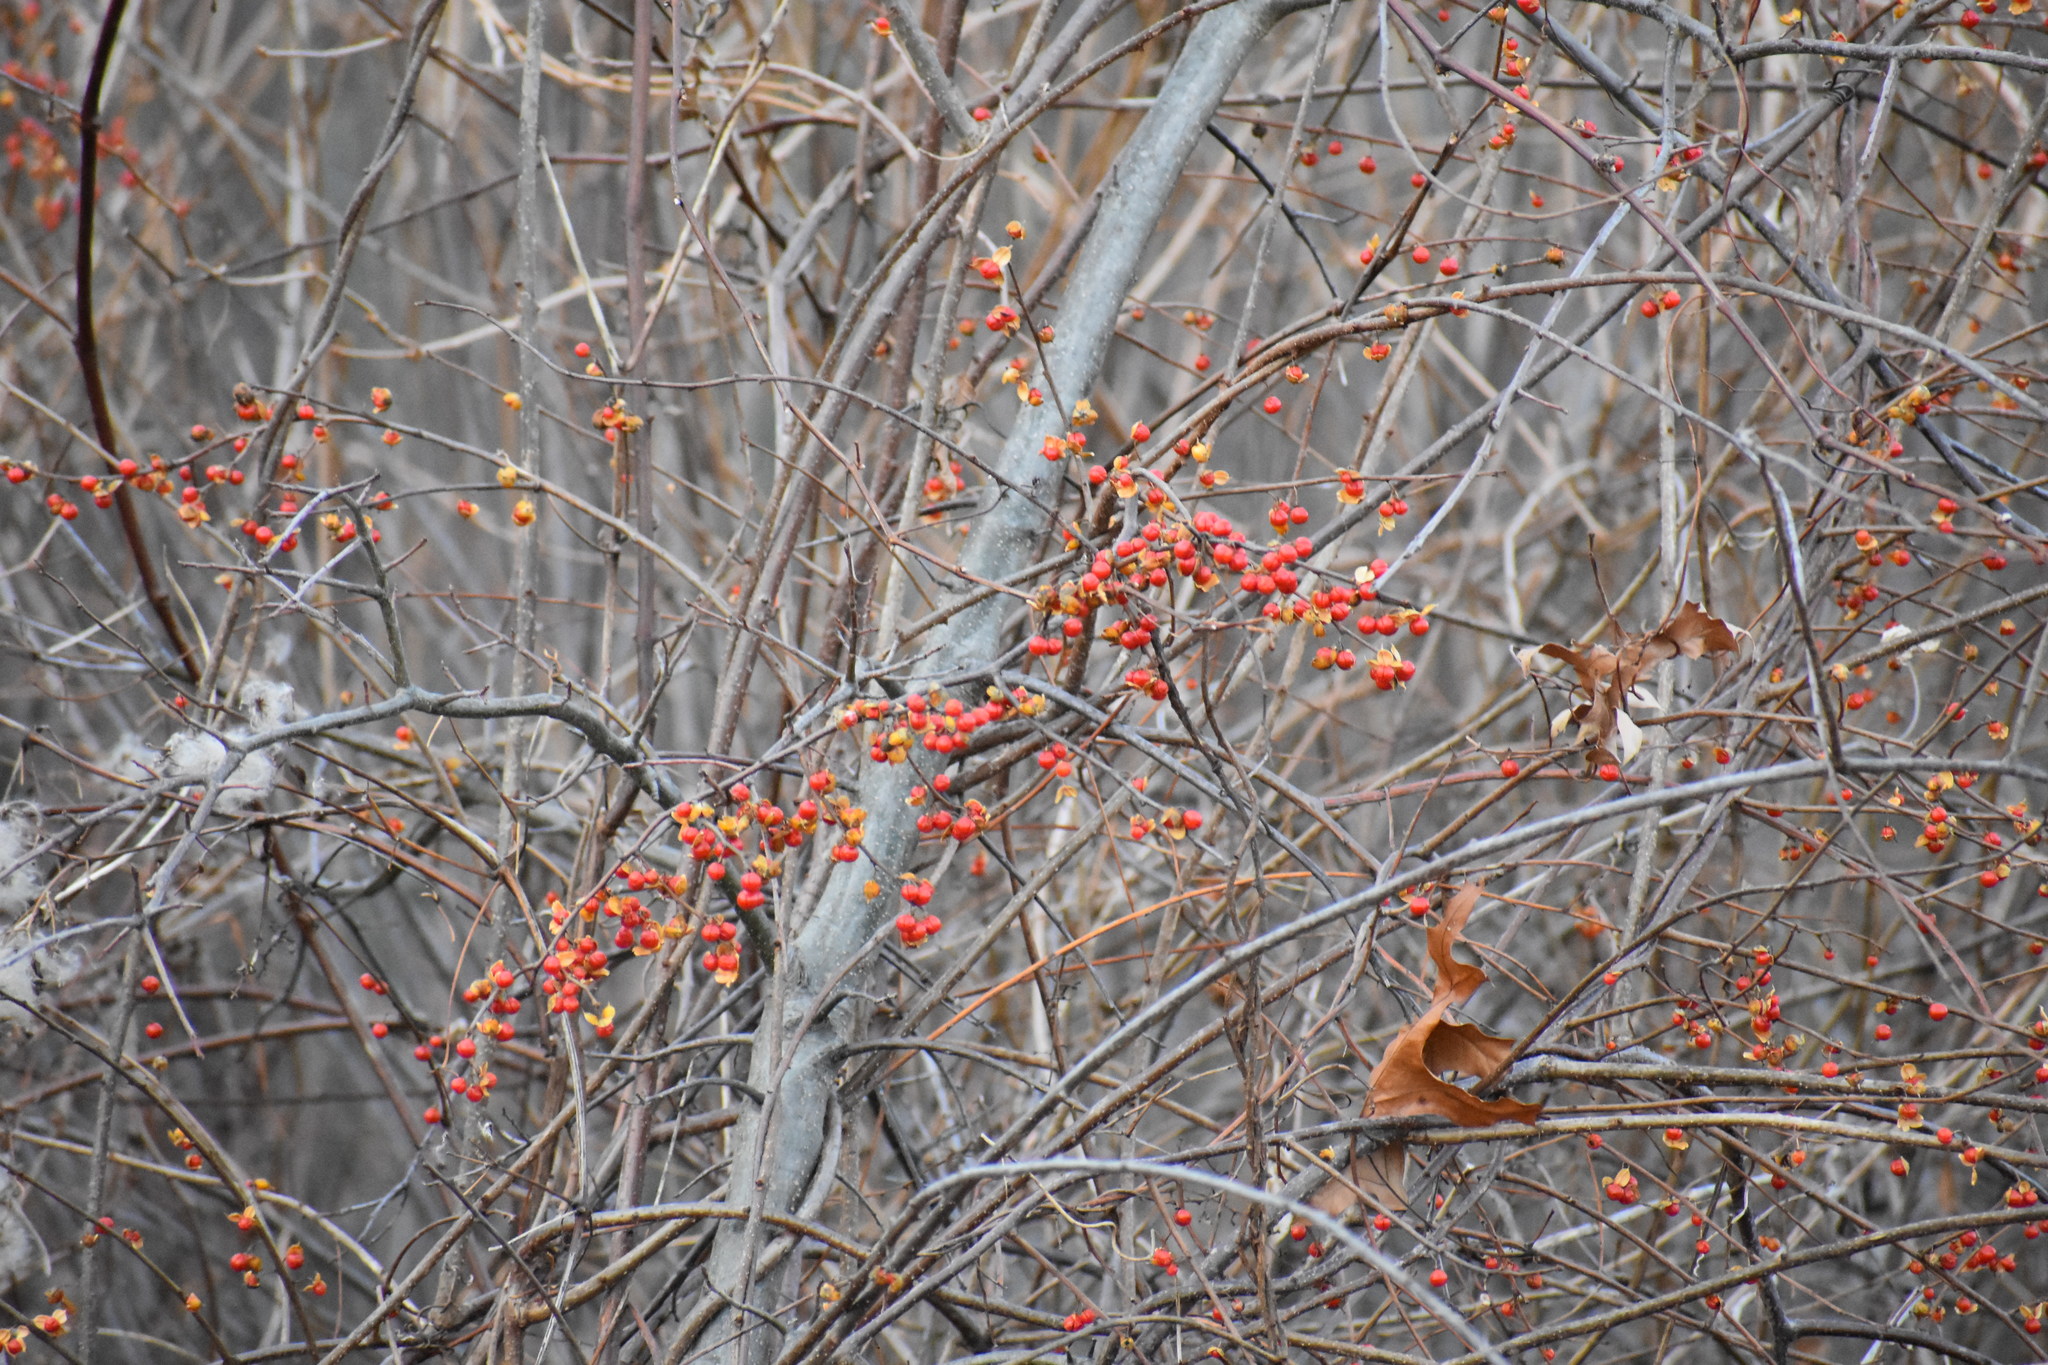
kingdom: Plantae
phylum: Tracheophyta
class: Magnoliopsida
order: Celastrales
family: Celastraceae
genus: Celastrus
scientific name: Celastrus orbiculatus
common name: Oriental bittersweet
